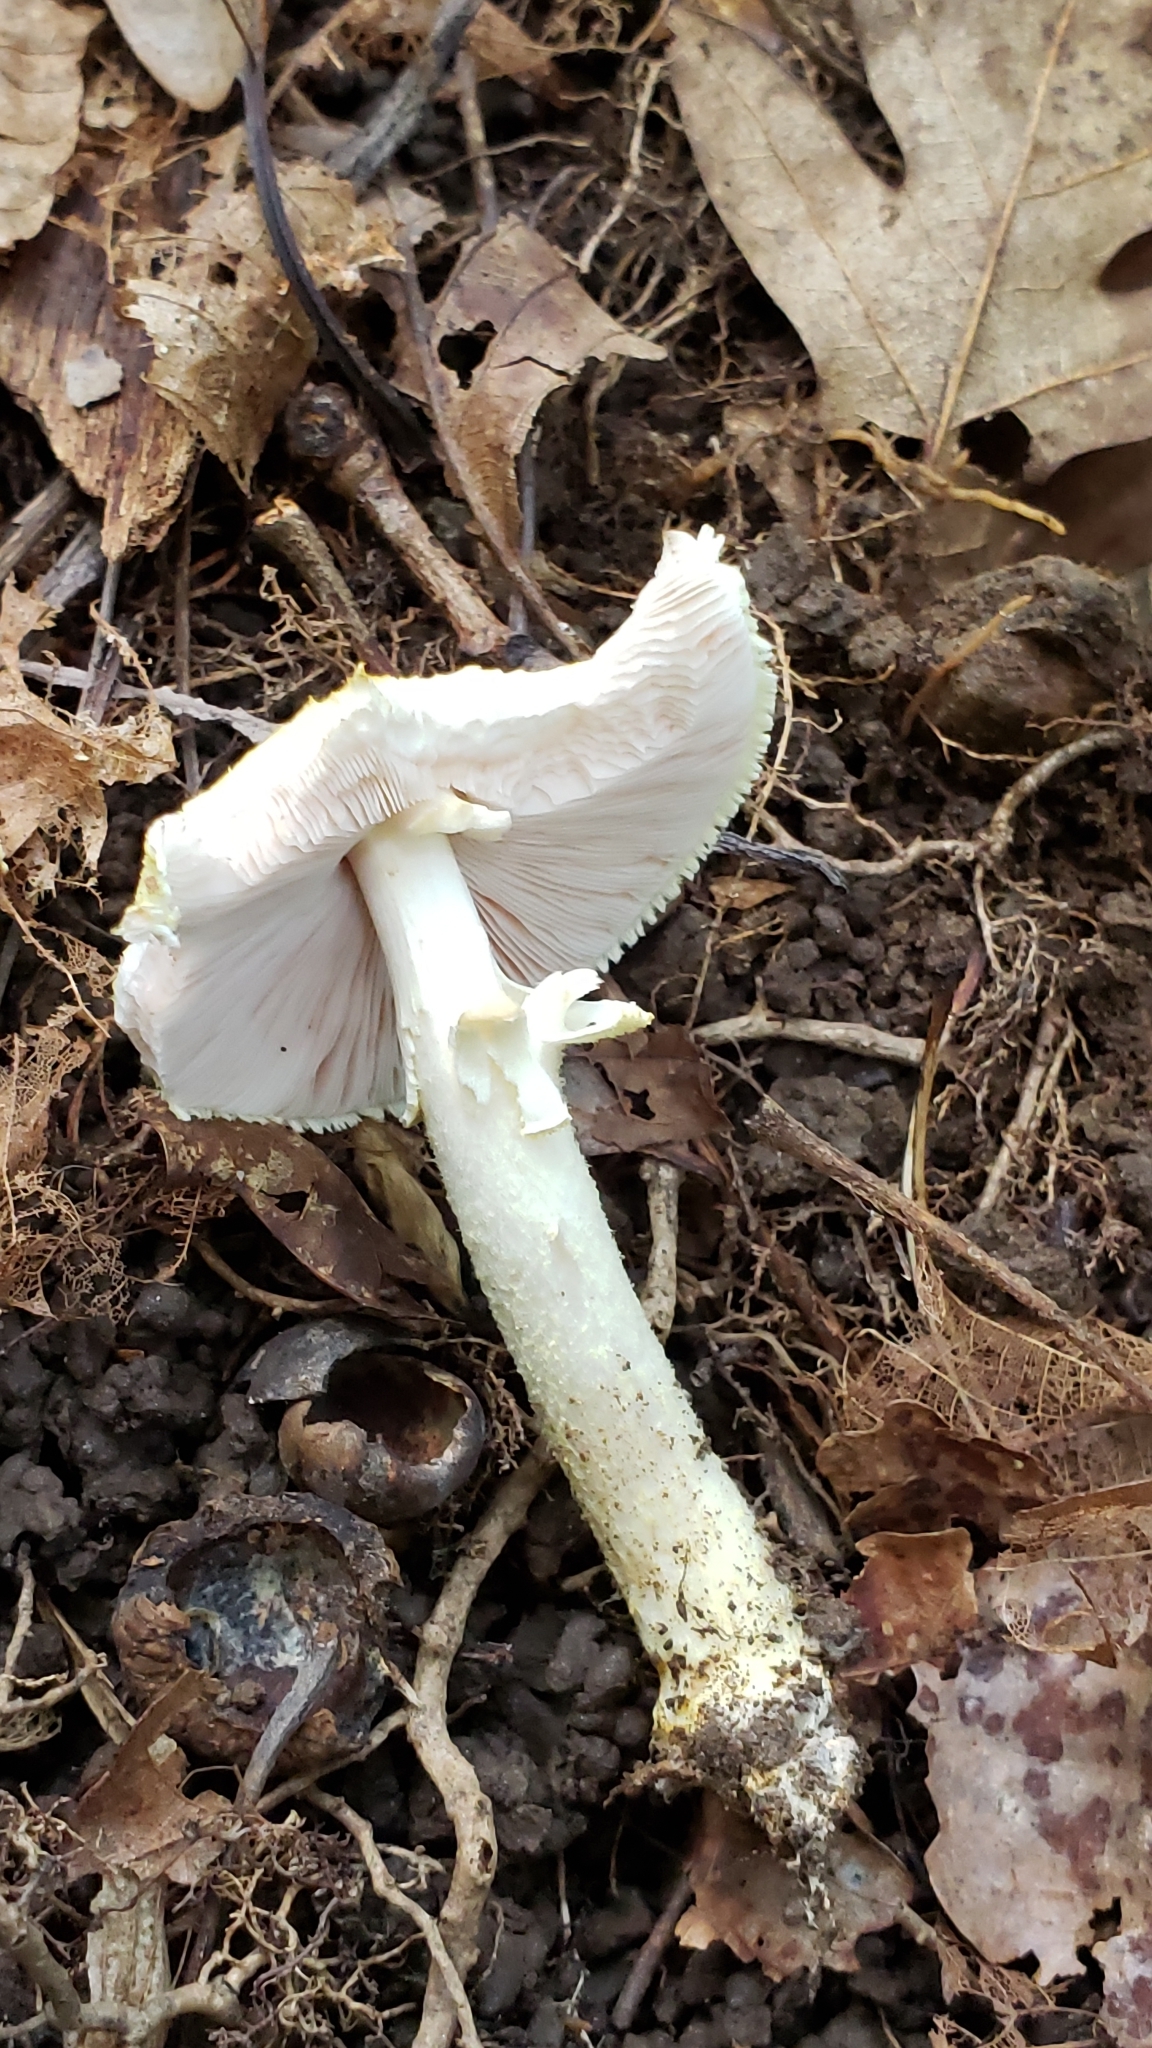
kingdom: Fungi
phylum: Basidiomycota
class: Agaricomycetes
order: Agaricales
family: Agaricaceae
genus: Agaricus
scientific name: Agaricus
